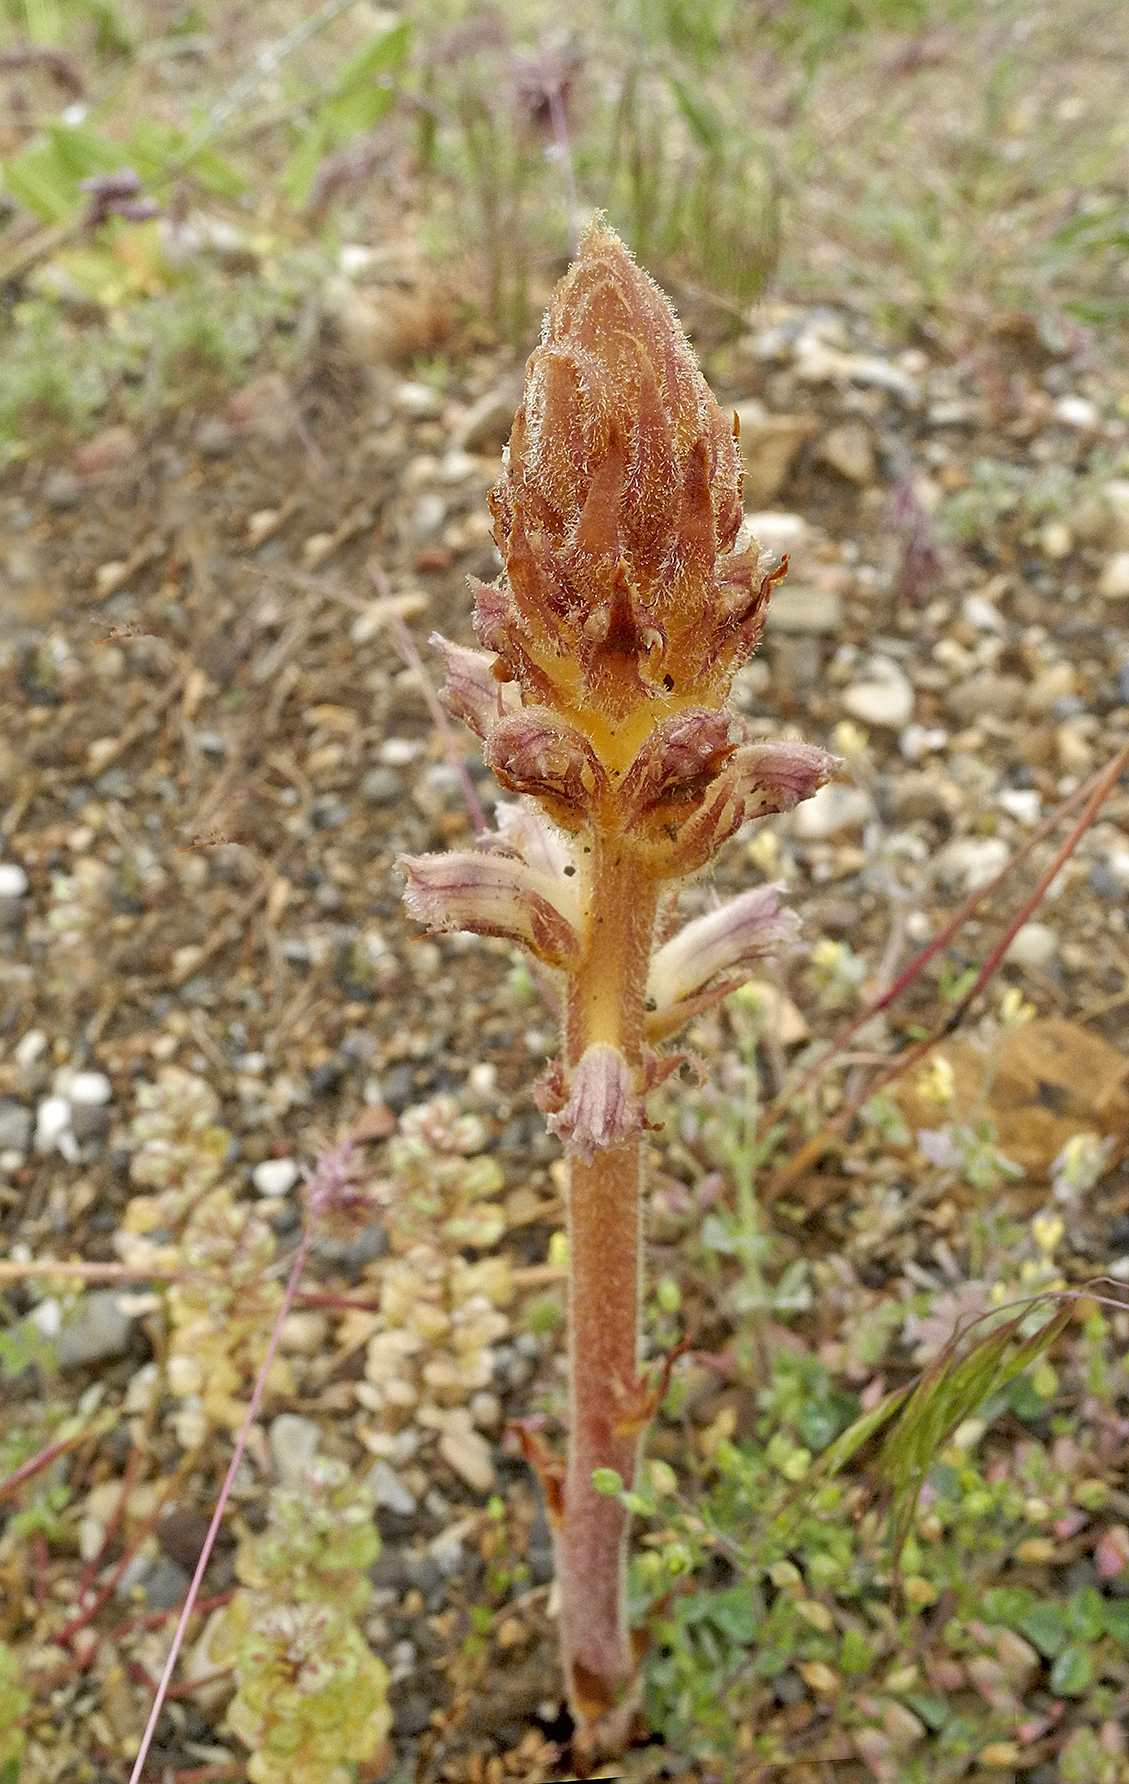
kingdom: Plantae
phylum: Tracheophyta
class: Magnoliopsida
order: Lamiales
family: Orobanchaceae
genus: Orobanche
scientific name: Orobanche minor
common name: Common broomrape
